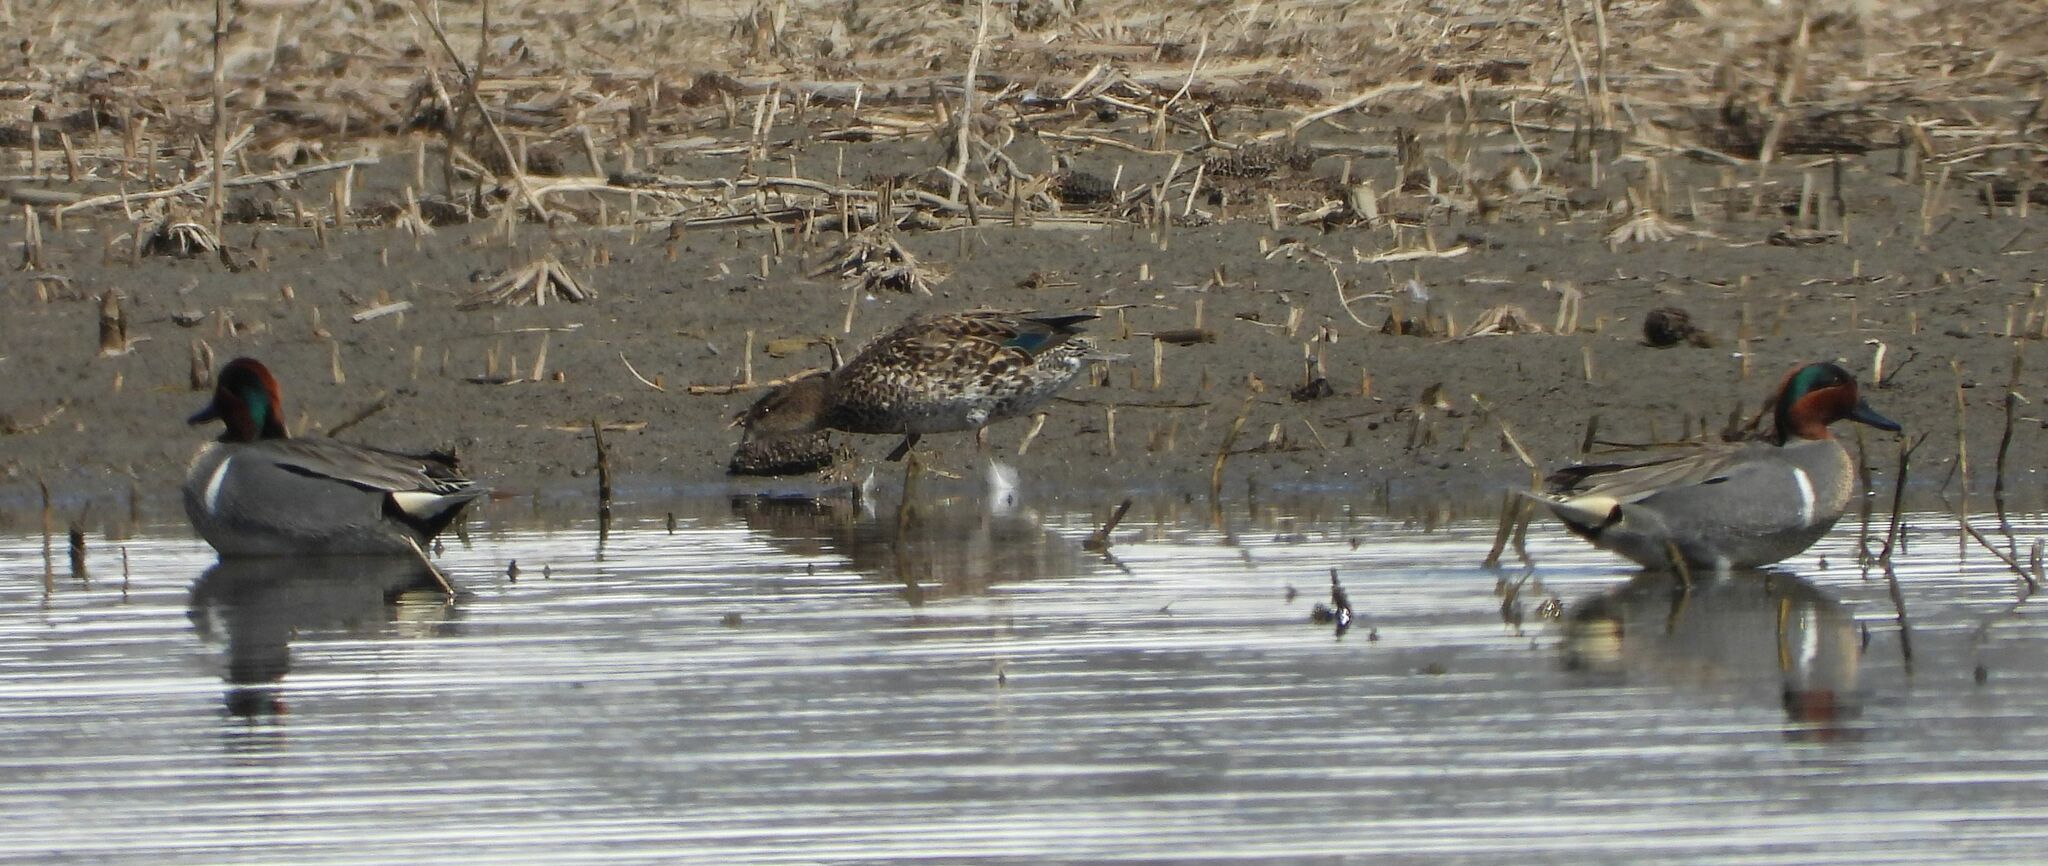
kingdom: Animalia
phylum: Chordata
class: Aves
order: Anseriformes
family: Anatidae
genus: Anas
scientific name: Anas crecca
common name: Eurasian teal
